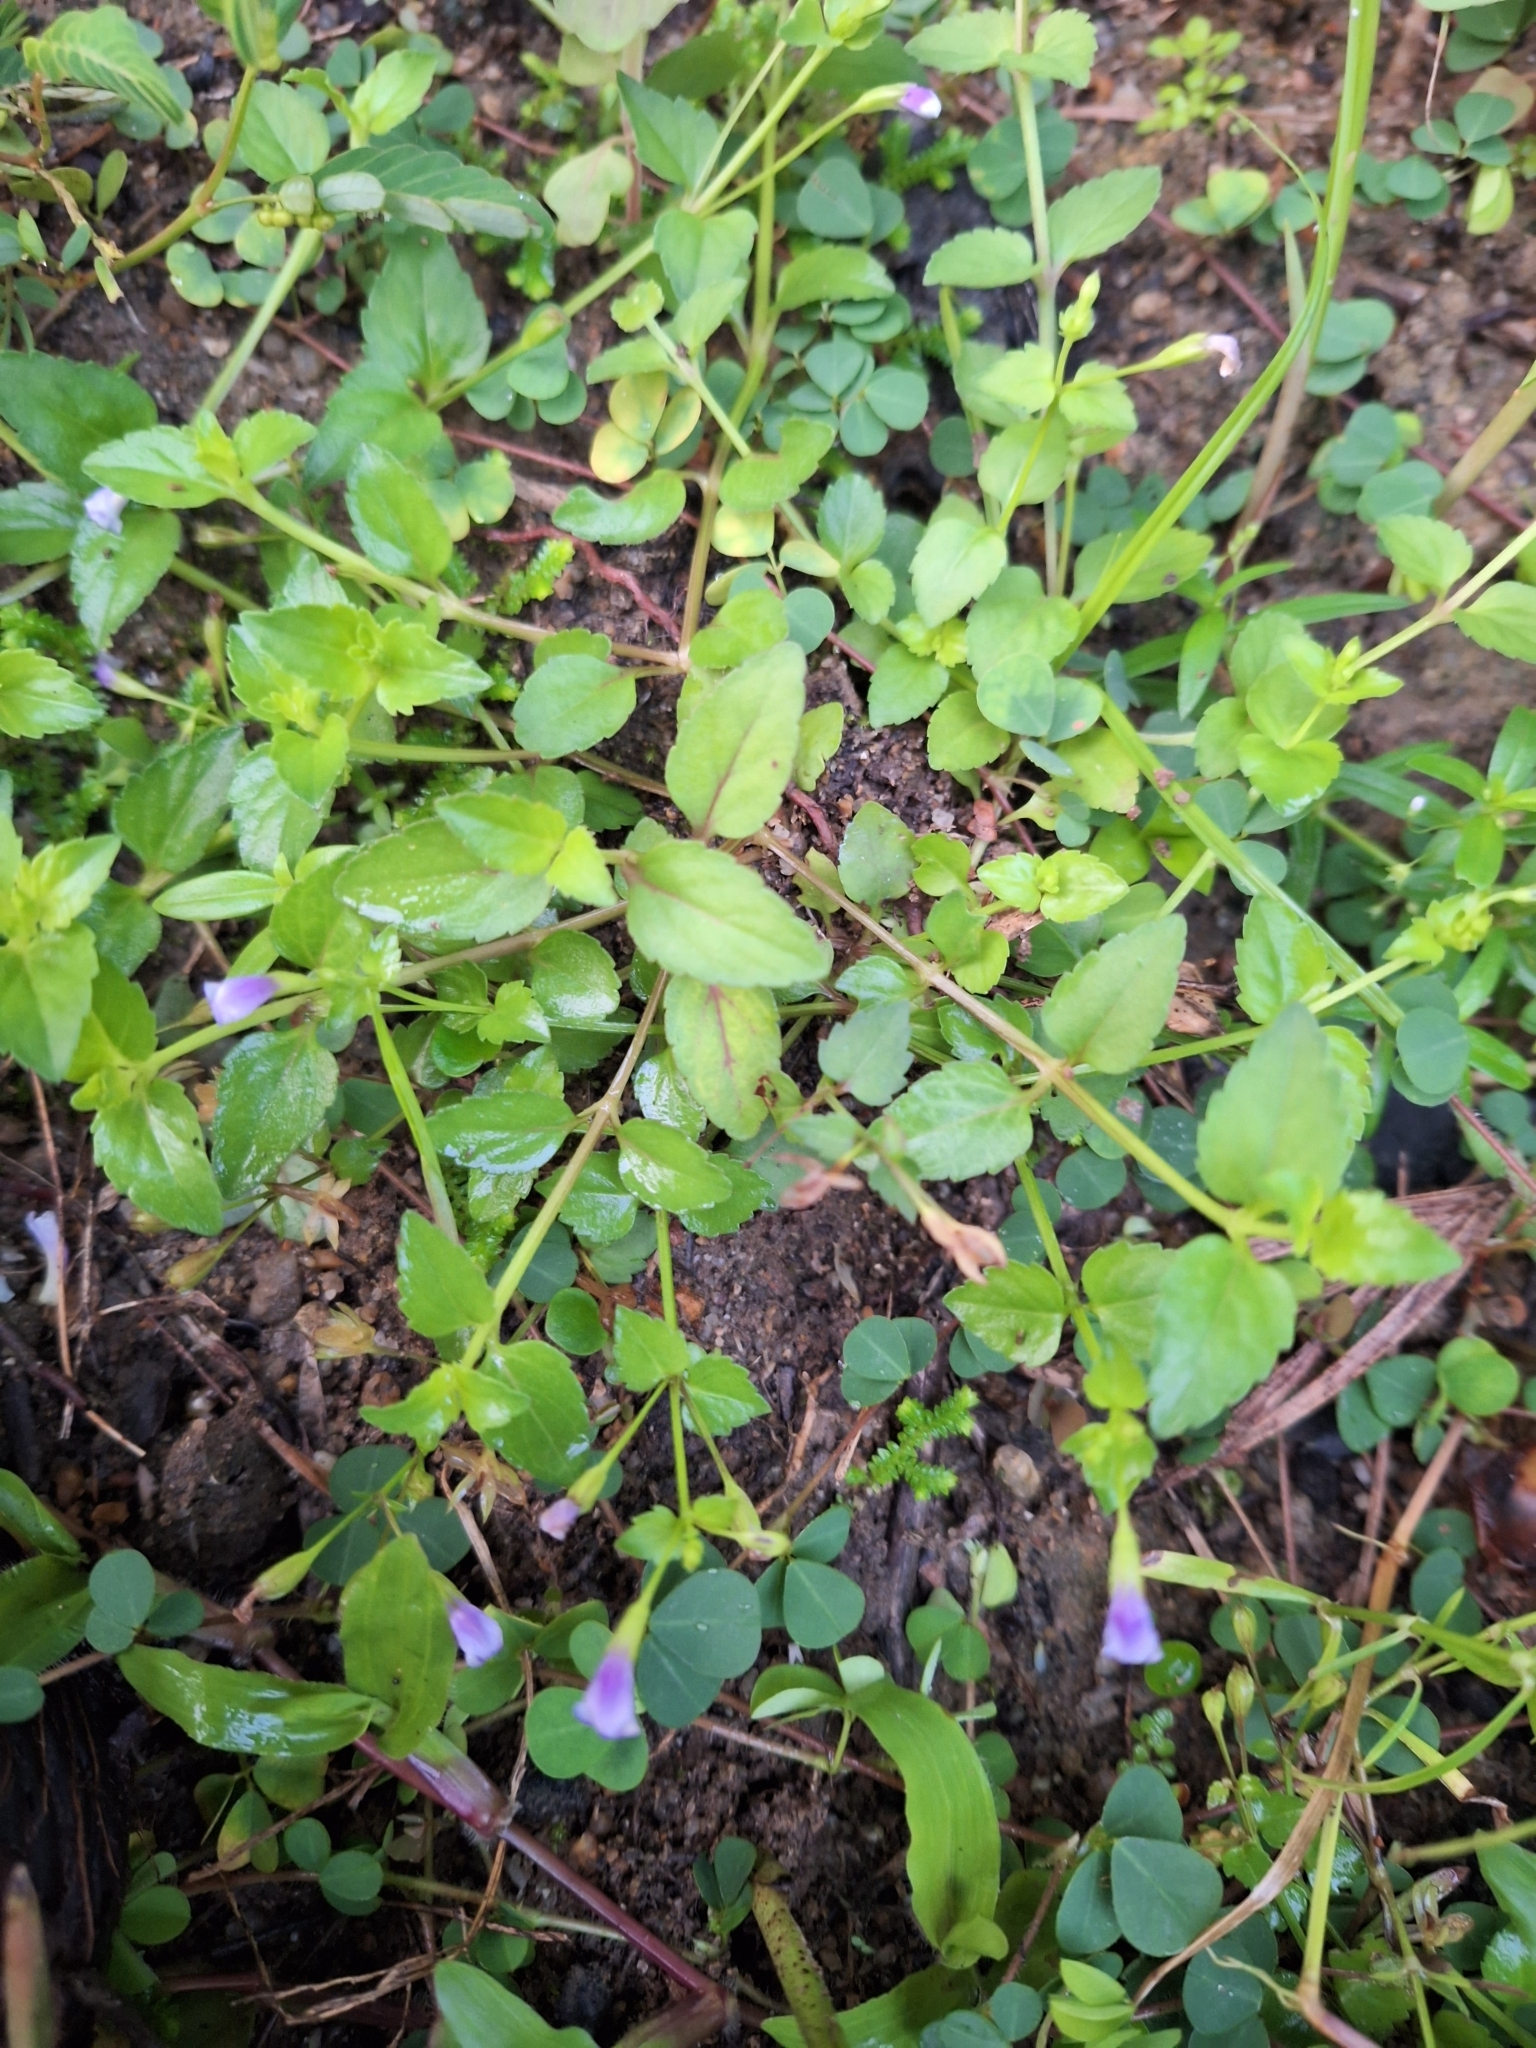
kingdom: Plantae
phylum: Tracheophyta
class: Magnoliopsida
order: Lamiales
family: Linderniaceae
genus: Torenia
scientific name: Torenia crustacea
